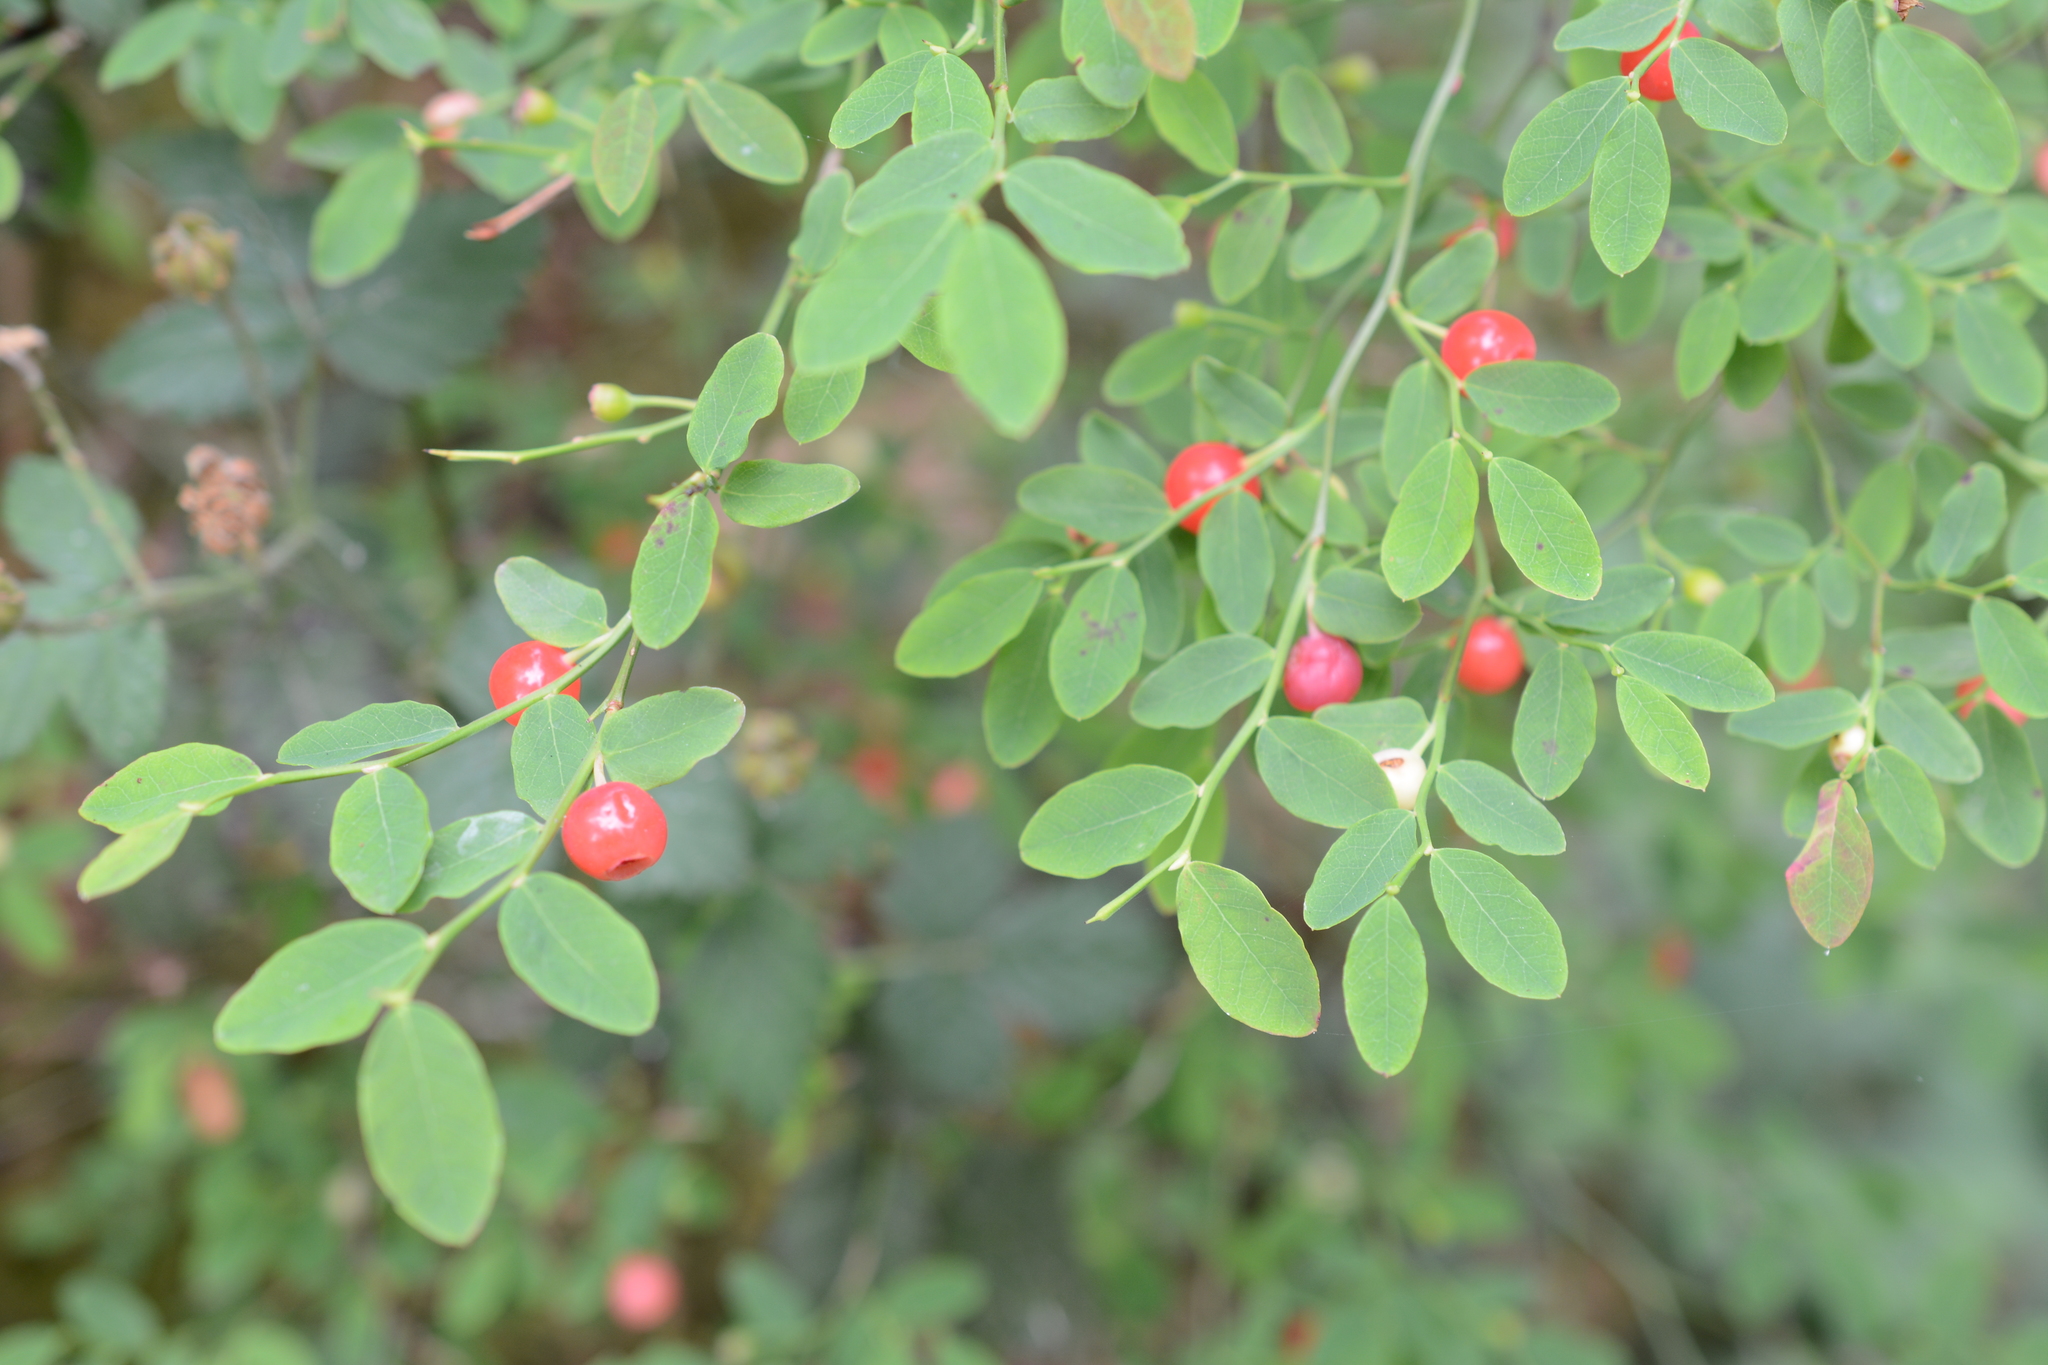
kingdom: Plantae
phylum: Tracheophyta
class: Magnoliopsida
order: Ericales
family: Ericaceae
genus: Vaccinium
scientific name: Vaccinium parvifolium
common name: Red-huckleberry
